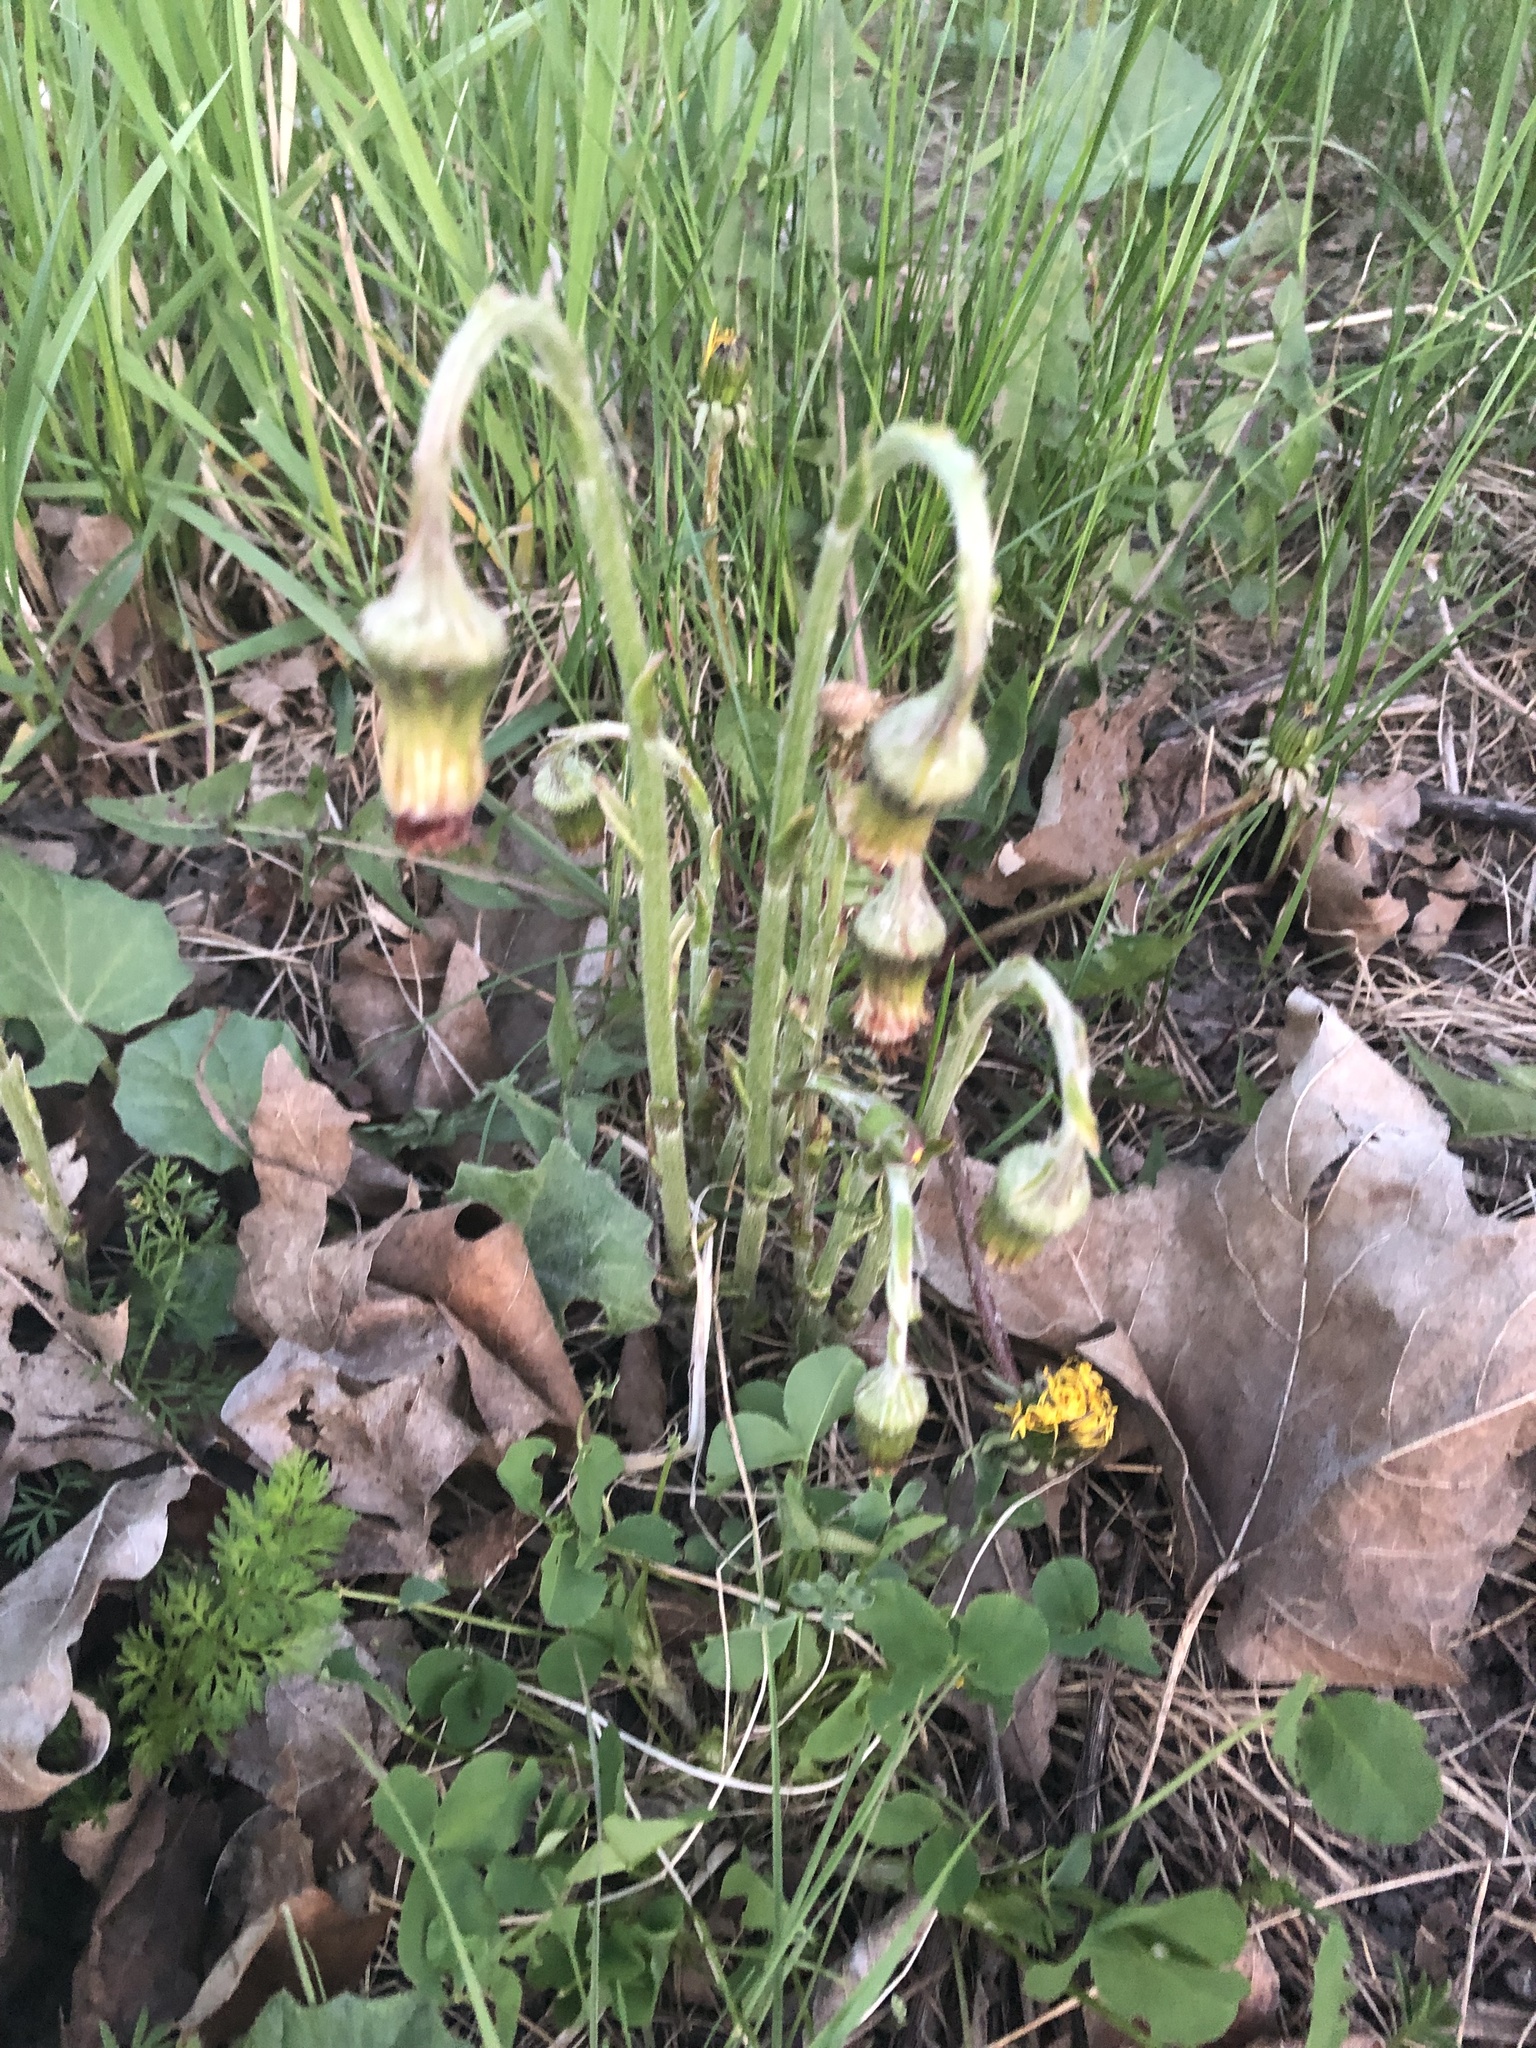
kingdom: Plantae
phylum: Tracheophyta
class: Magnoliopsida
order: Asterales
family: Asteraceae
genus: Tussilago
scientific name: Tussilago farfara
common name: Coltsfoot
